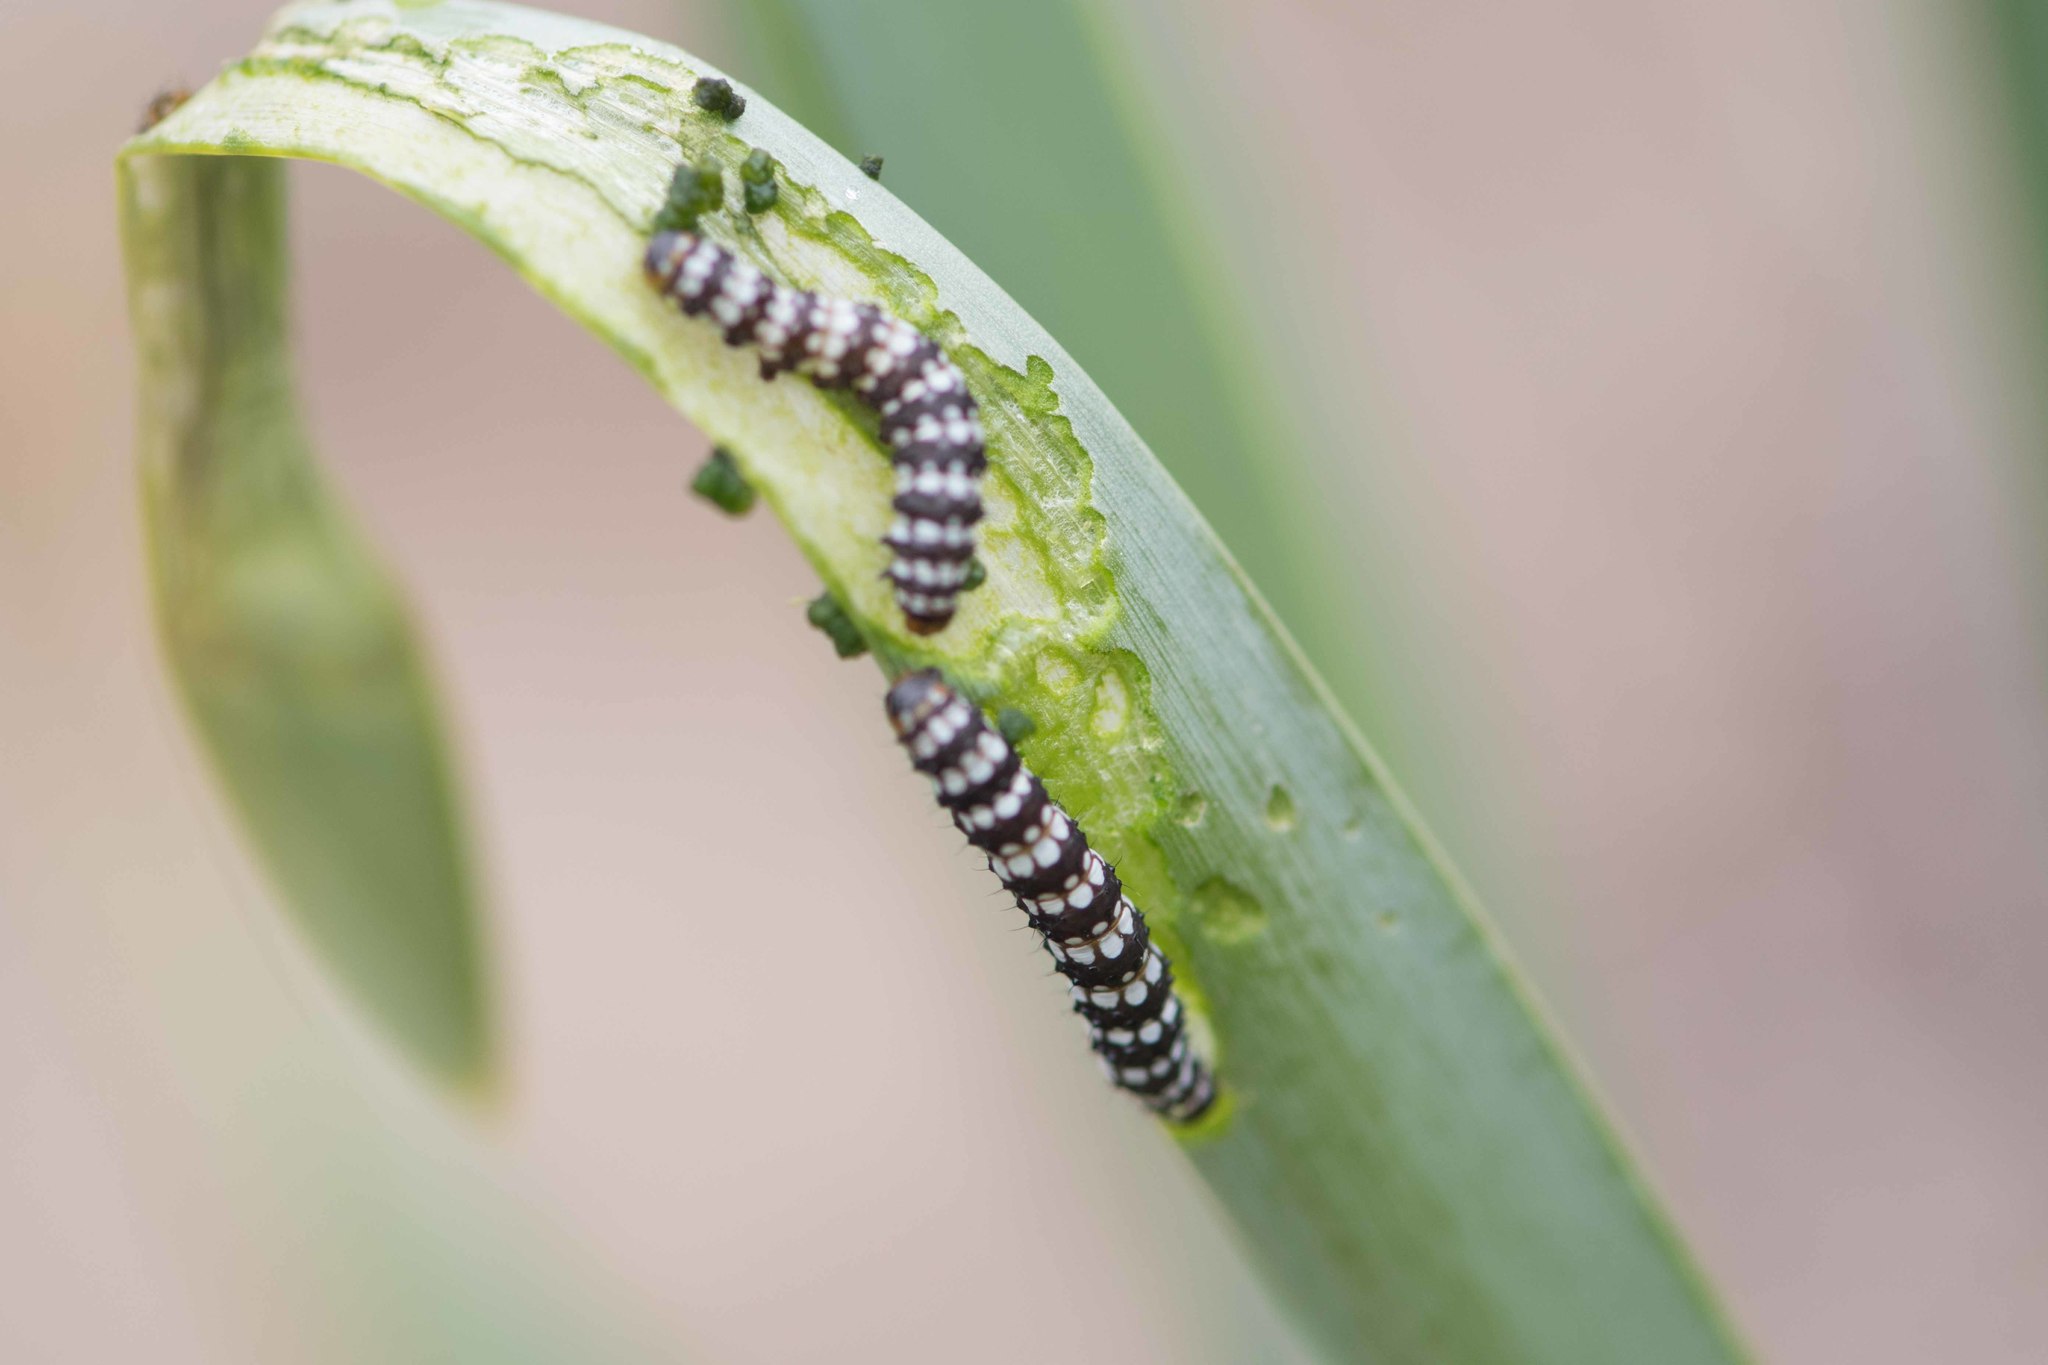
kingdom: Animalia
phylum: Arthropoda
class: Insecta
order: Lepidoptera
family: Noctuidae
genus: Brithys
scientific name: Brithys crini
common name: Kew arches
